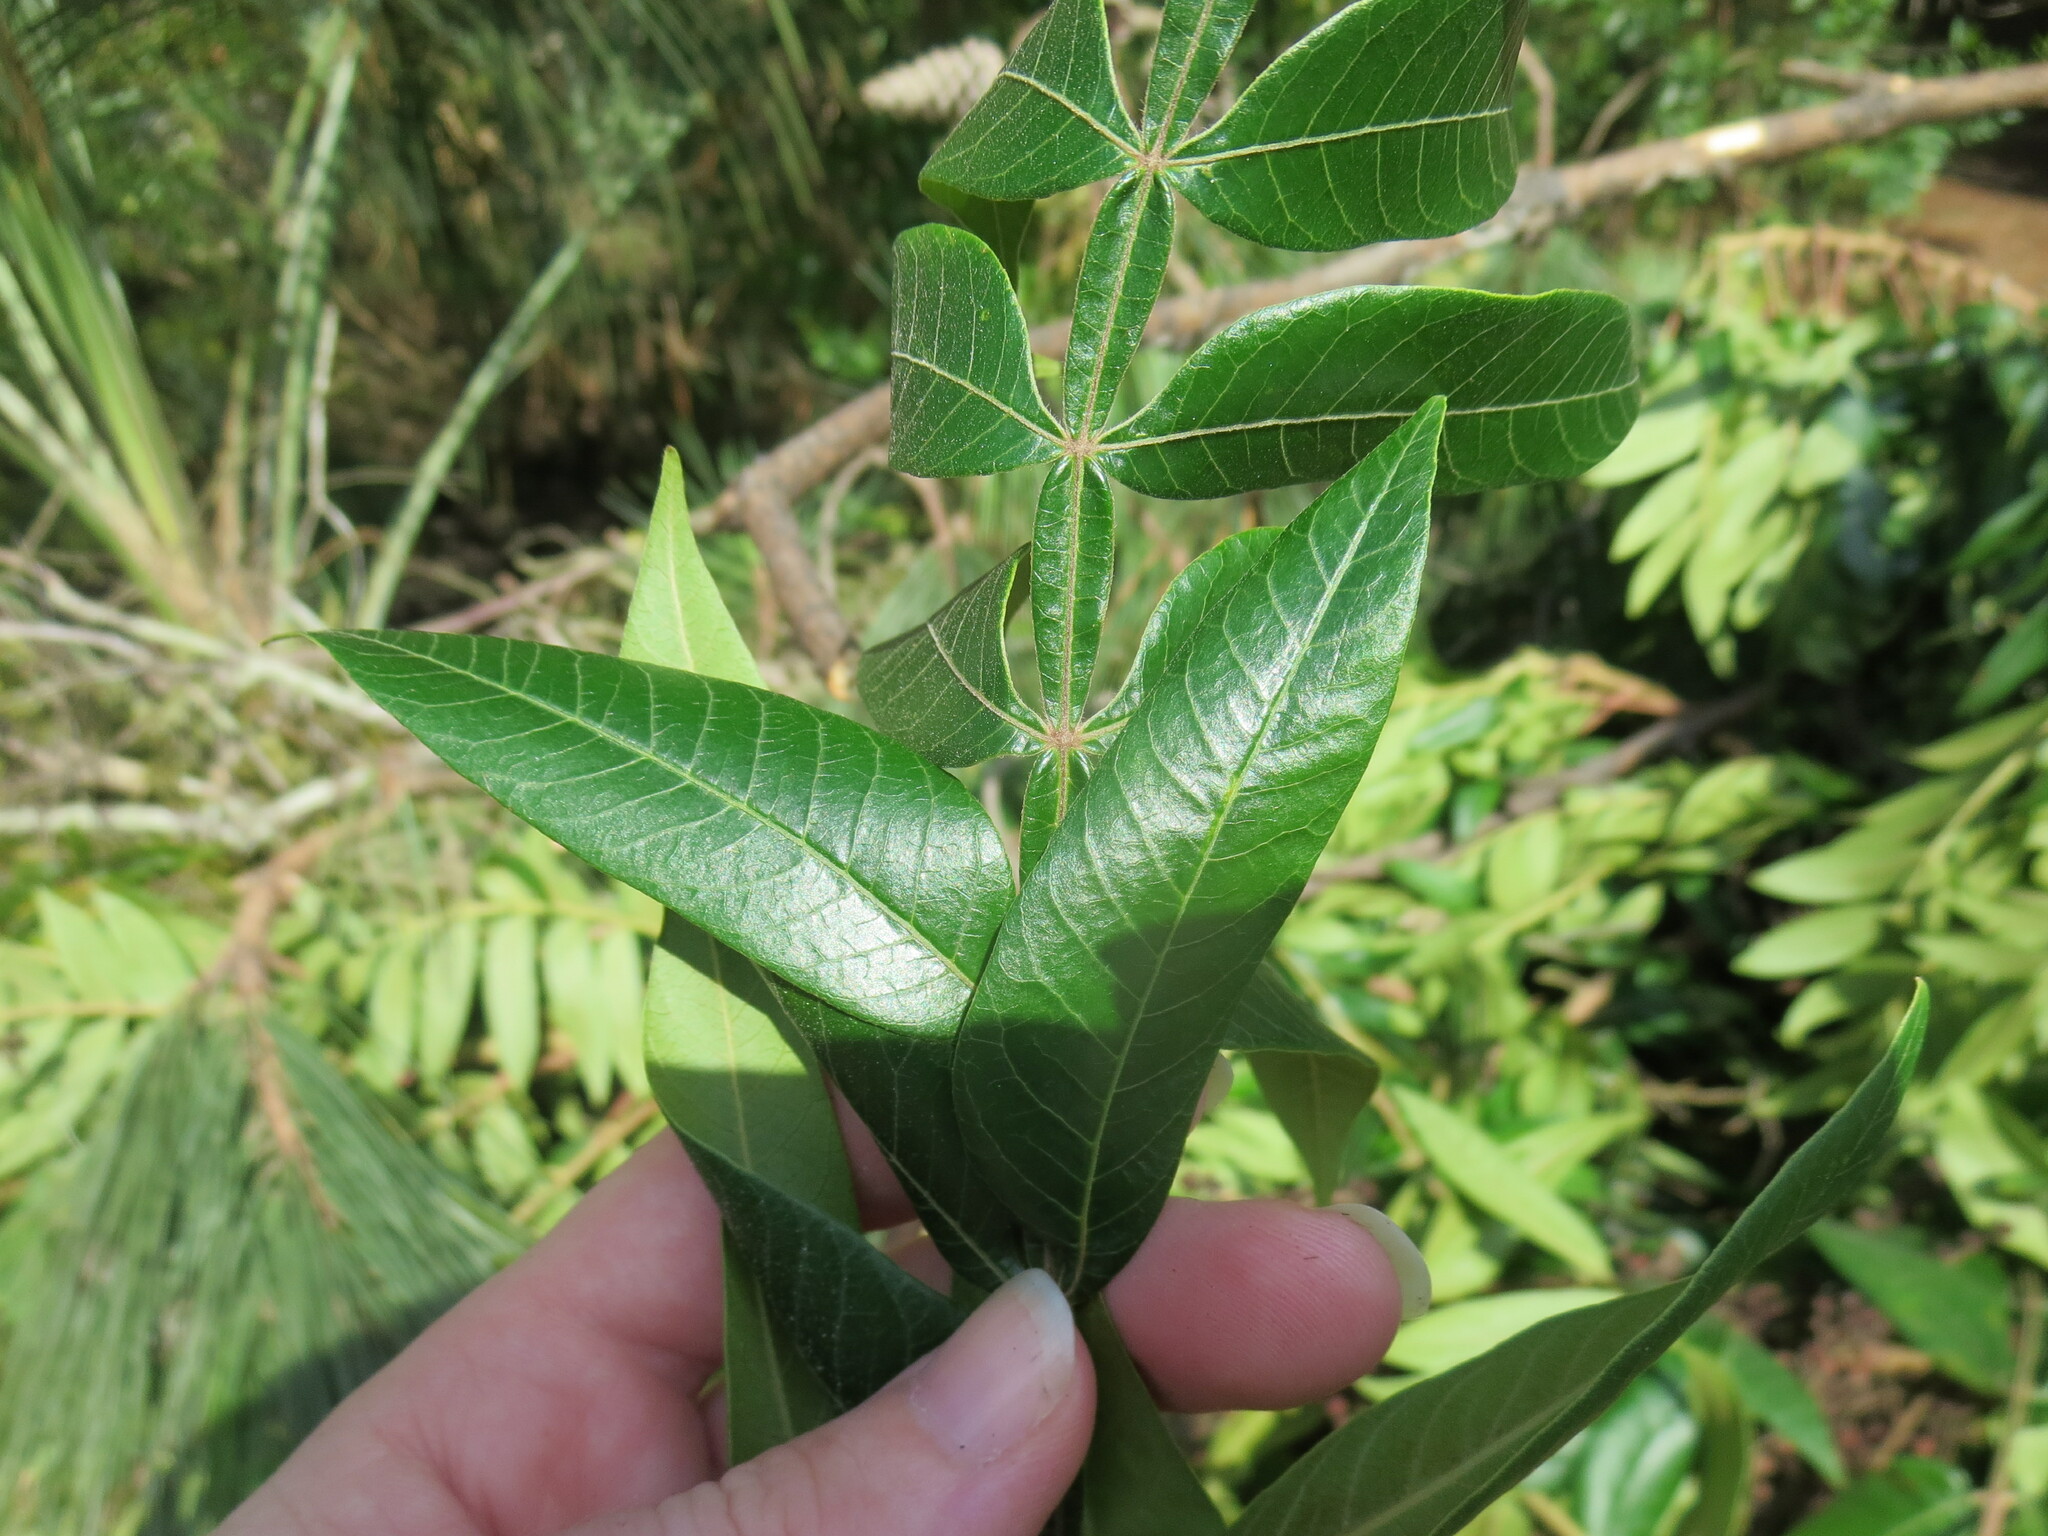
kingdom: Plantae
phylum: Tracheophyta
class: Magnoliopsida
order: Sapindales
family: Anacardiaceae
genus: Rhus
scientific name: Rhus copallina
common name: Shining sumac
